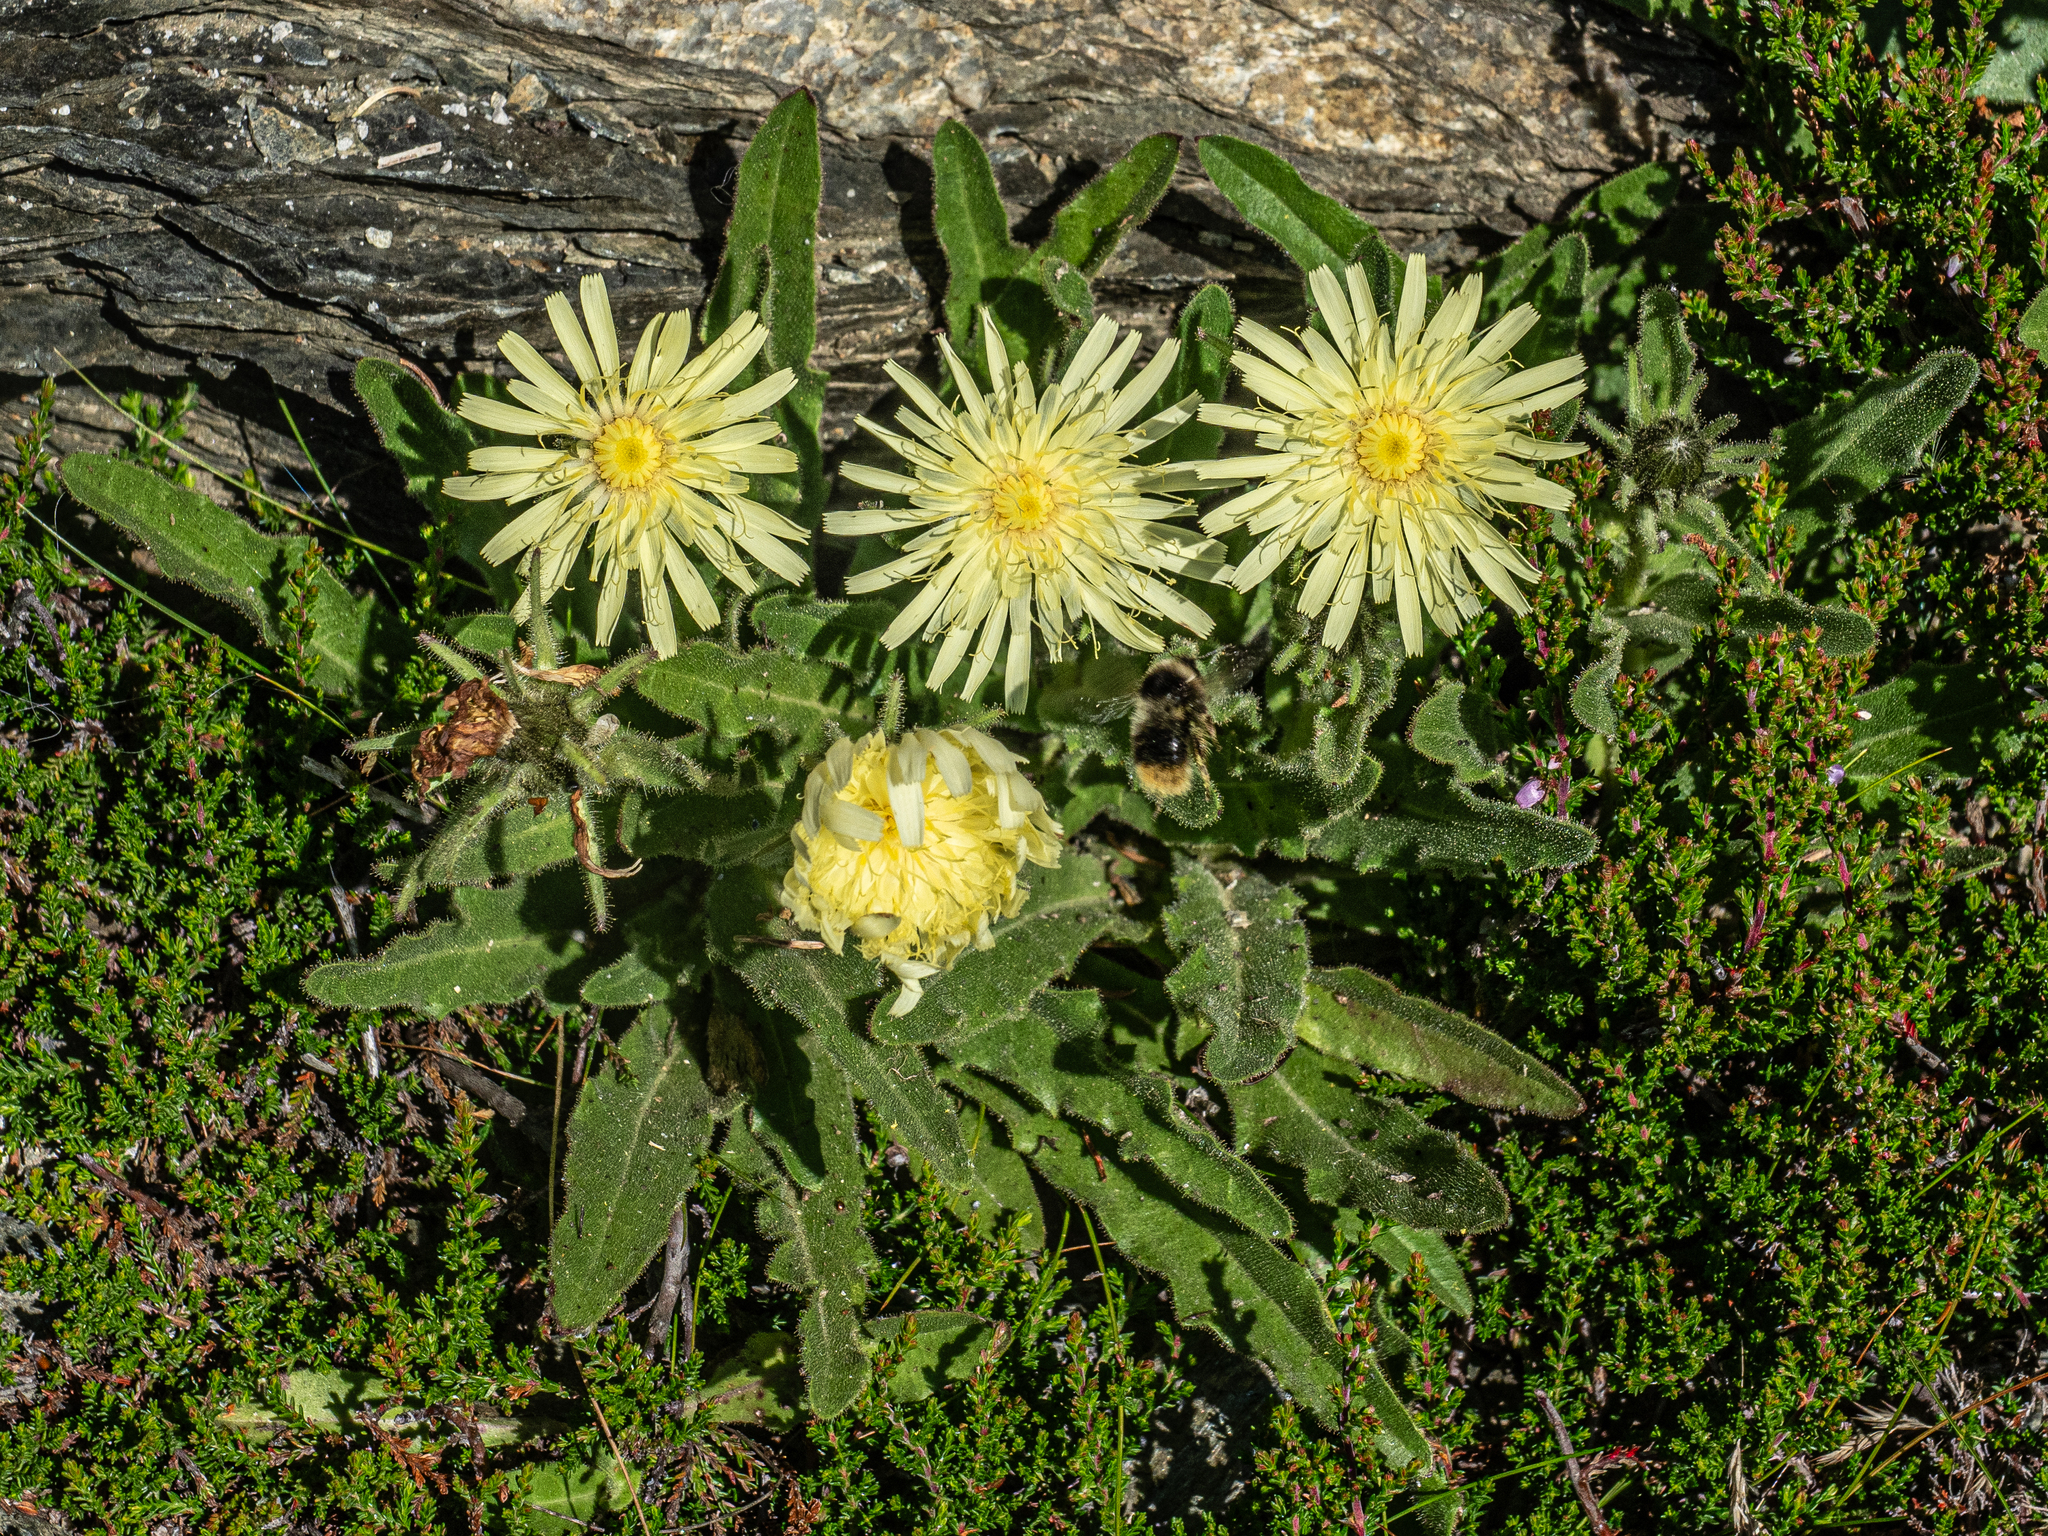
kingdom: Plantae
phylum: Tracheophyta
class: Magnoliopsida
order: Asterales
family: Asteraceae
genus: Schlagintweitia
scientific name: Schlagintweitia intybacea
